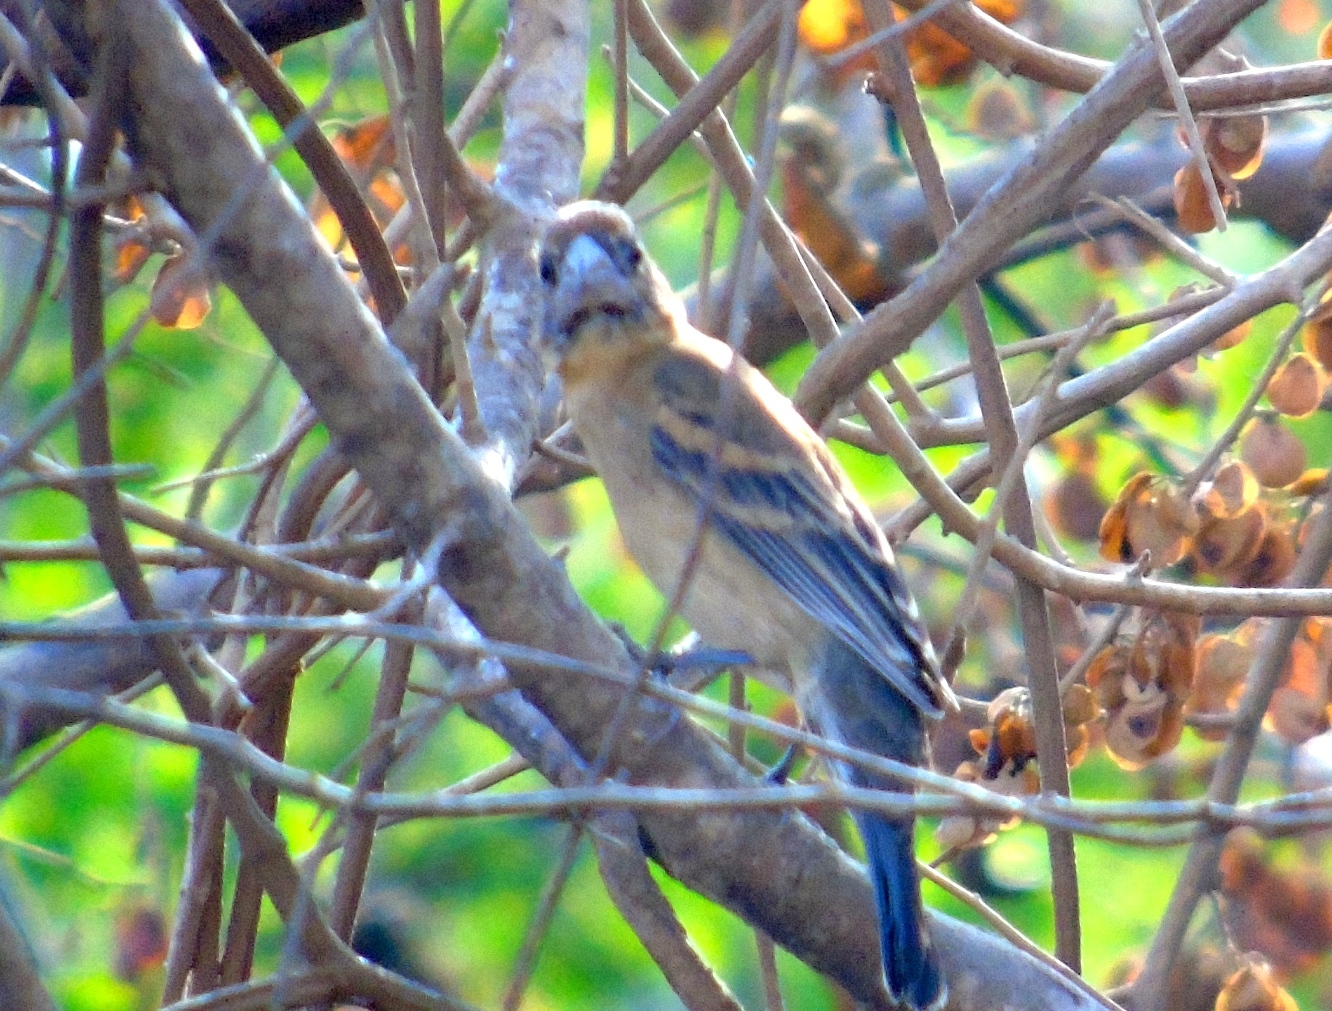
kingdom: Animalia
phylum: Chordata
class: Aves
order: Passeriformes
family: Cardinalidae
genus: Passerina
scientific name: Passerina caerulea
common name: Blue grosbeak
